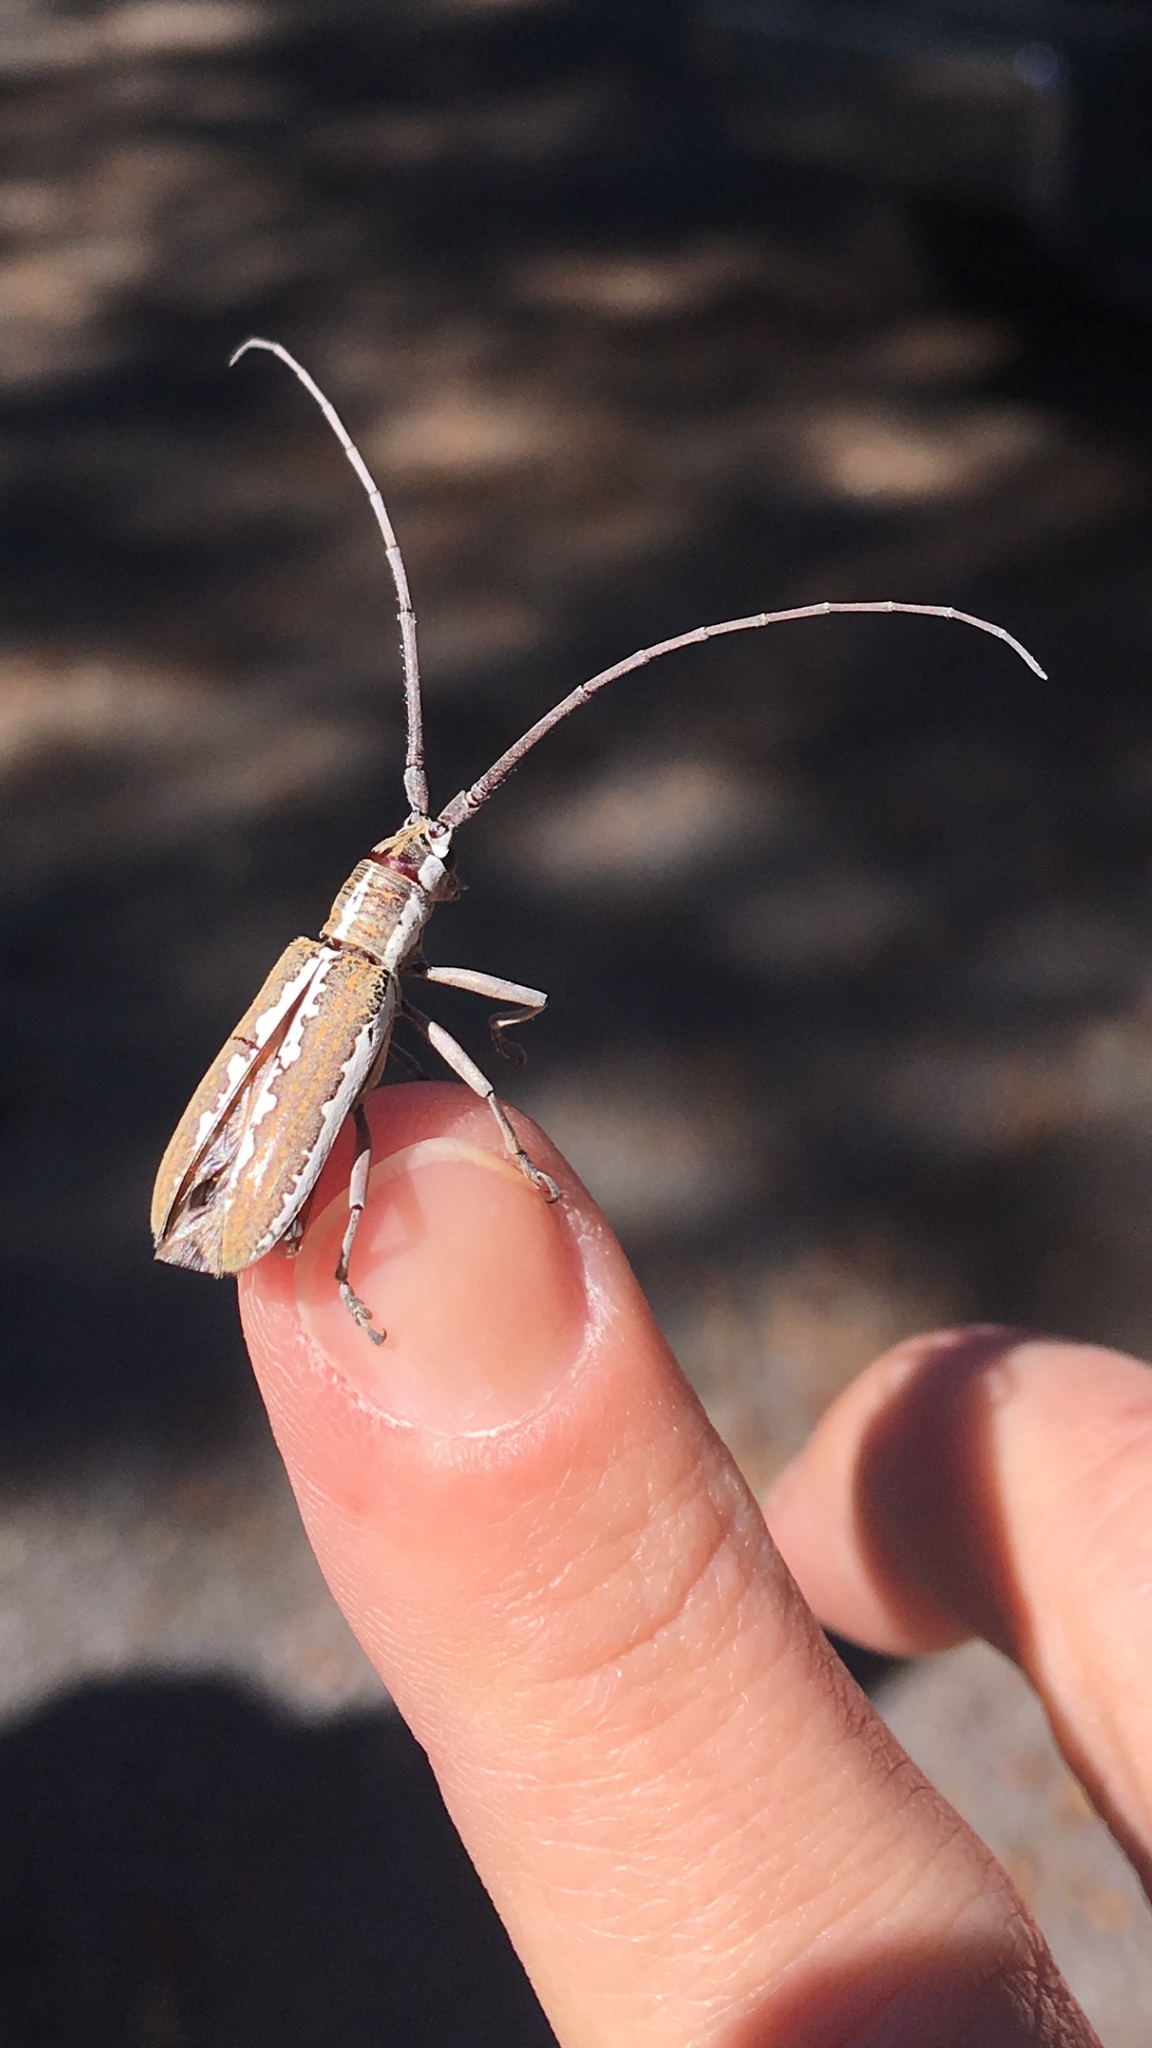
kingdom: Animalia
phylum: Arthropoda
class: Insecta
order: Coleoptera
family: Cerambycidae
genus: Neoptychodes
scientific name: Neoptychodes trilineatus
